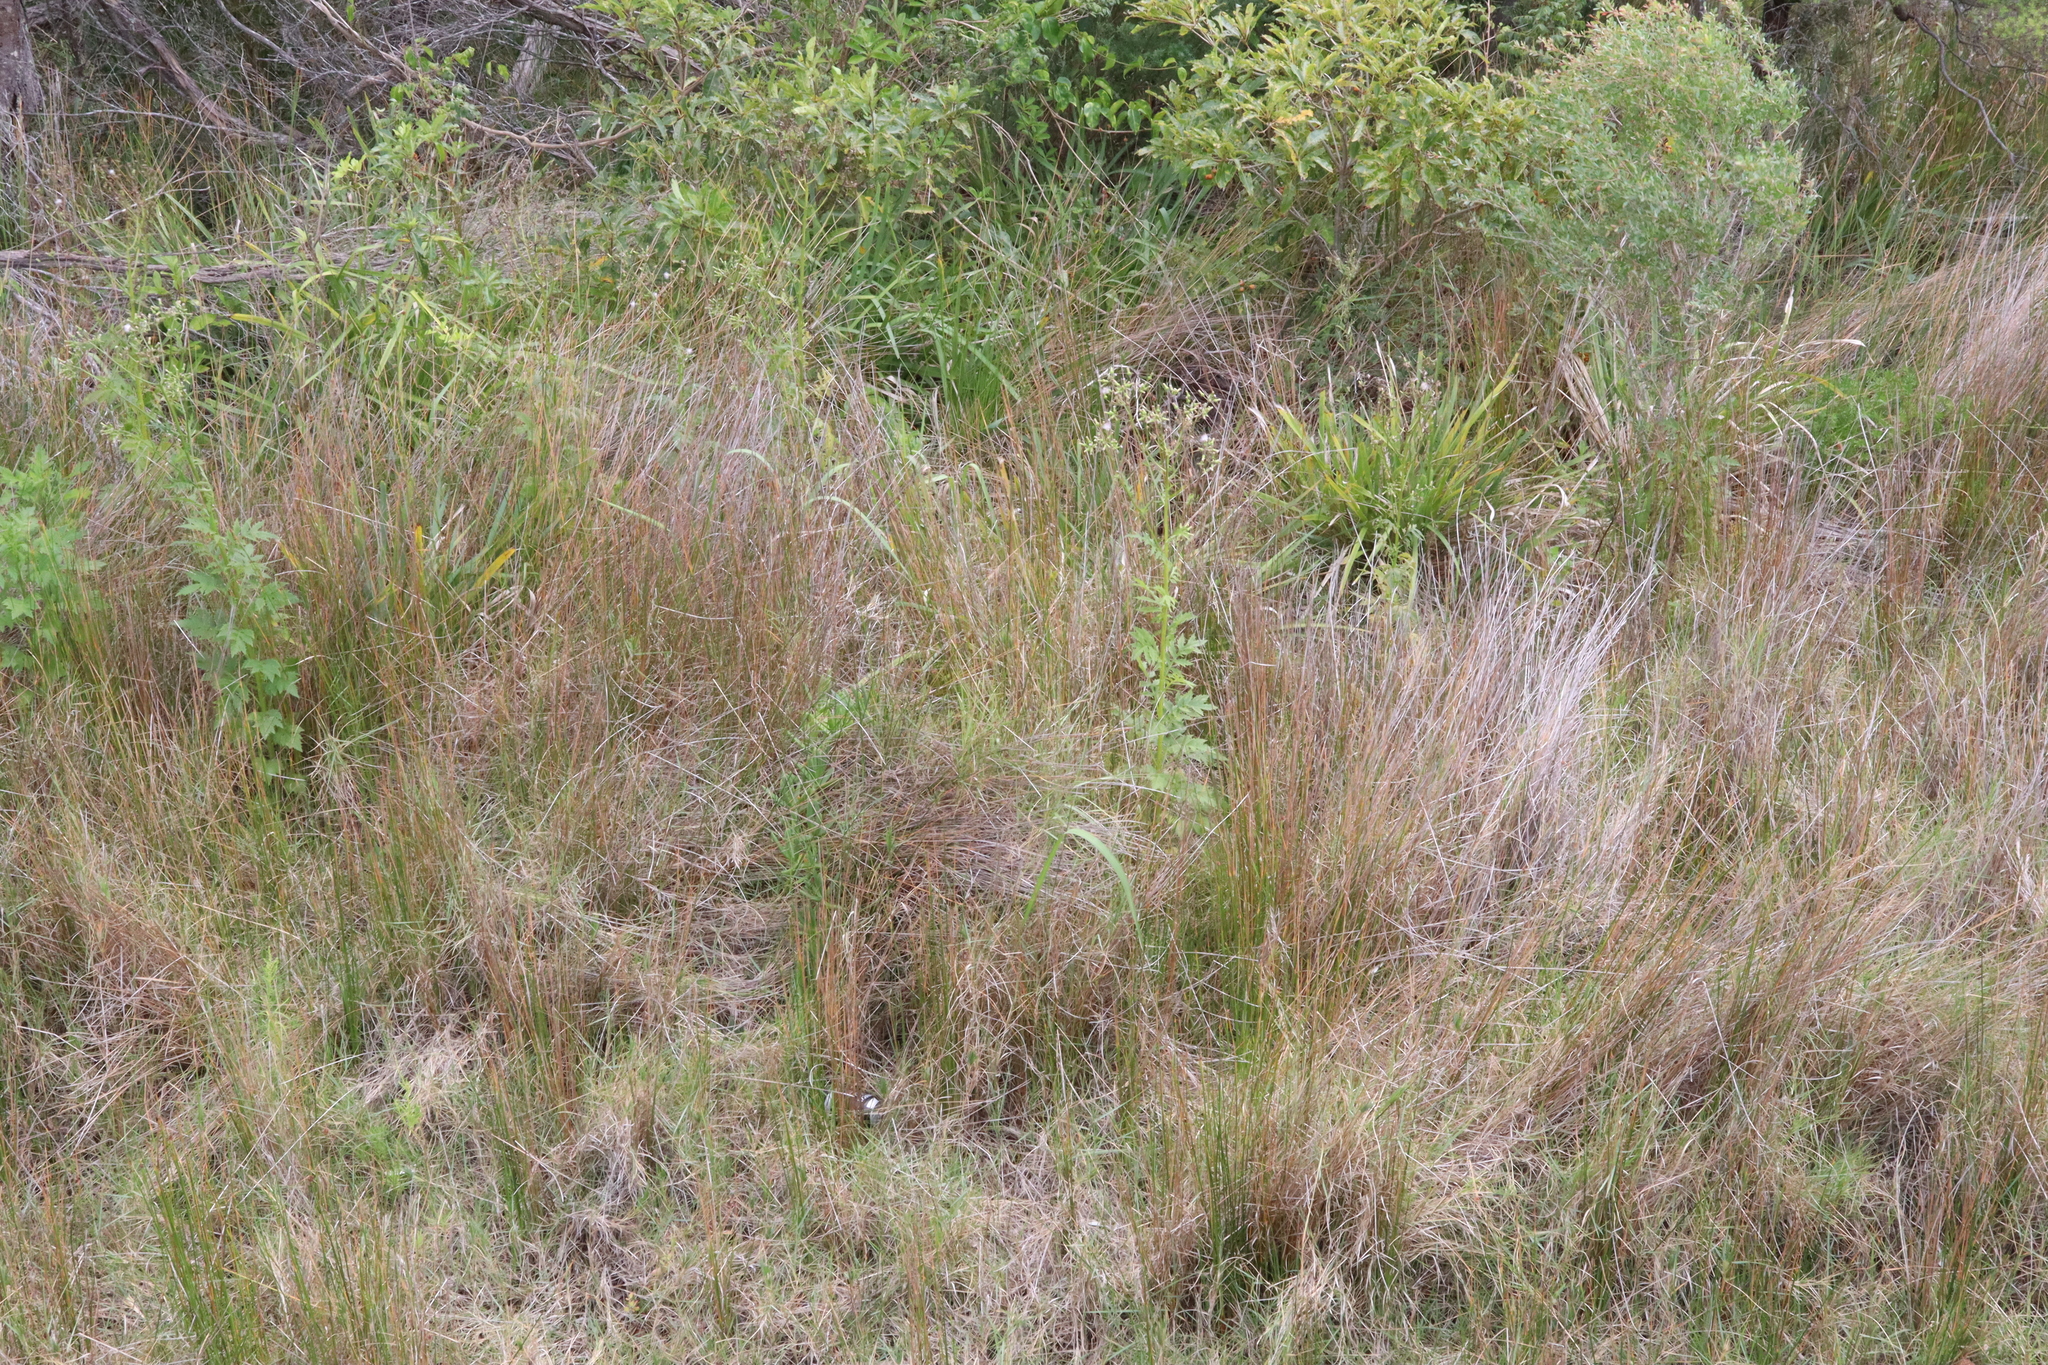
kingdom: Plantae
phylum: Tracheophyta
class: Magnoliopsida
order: Asterales
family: Asteraceae
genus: Erechtites
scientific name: Erechtites valerianifolius
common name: Tropical burnweed
